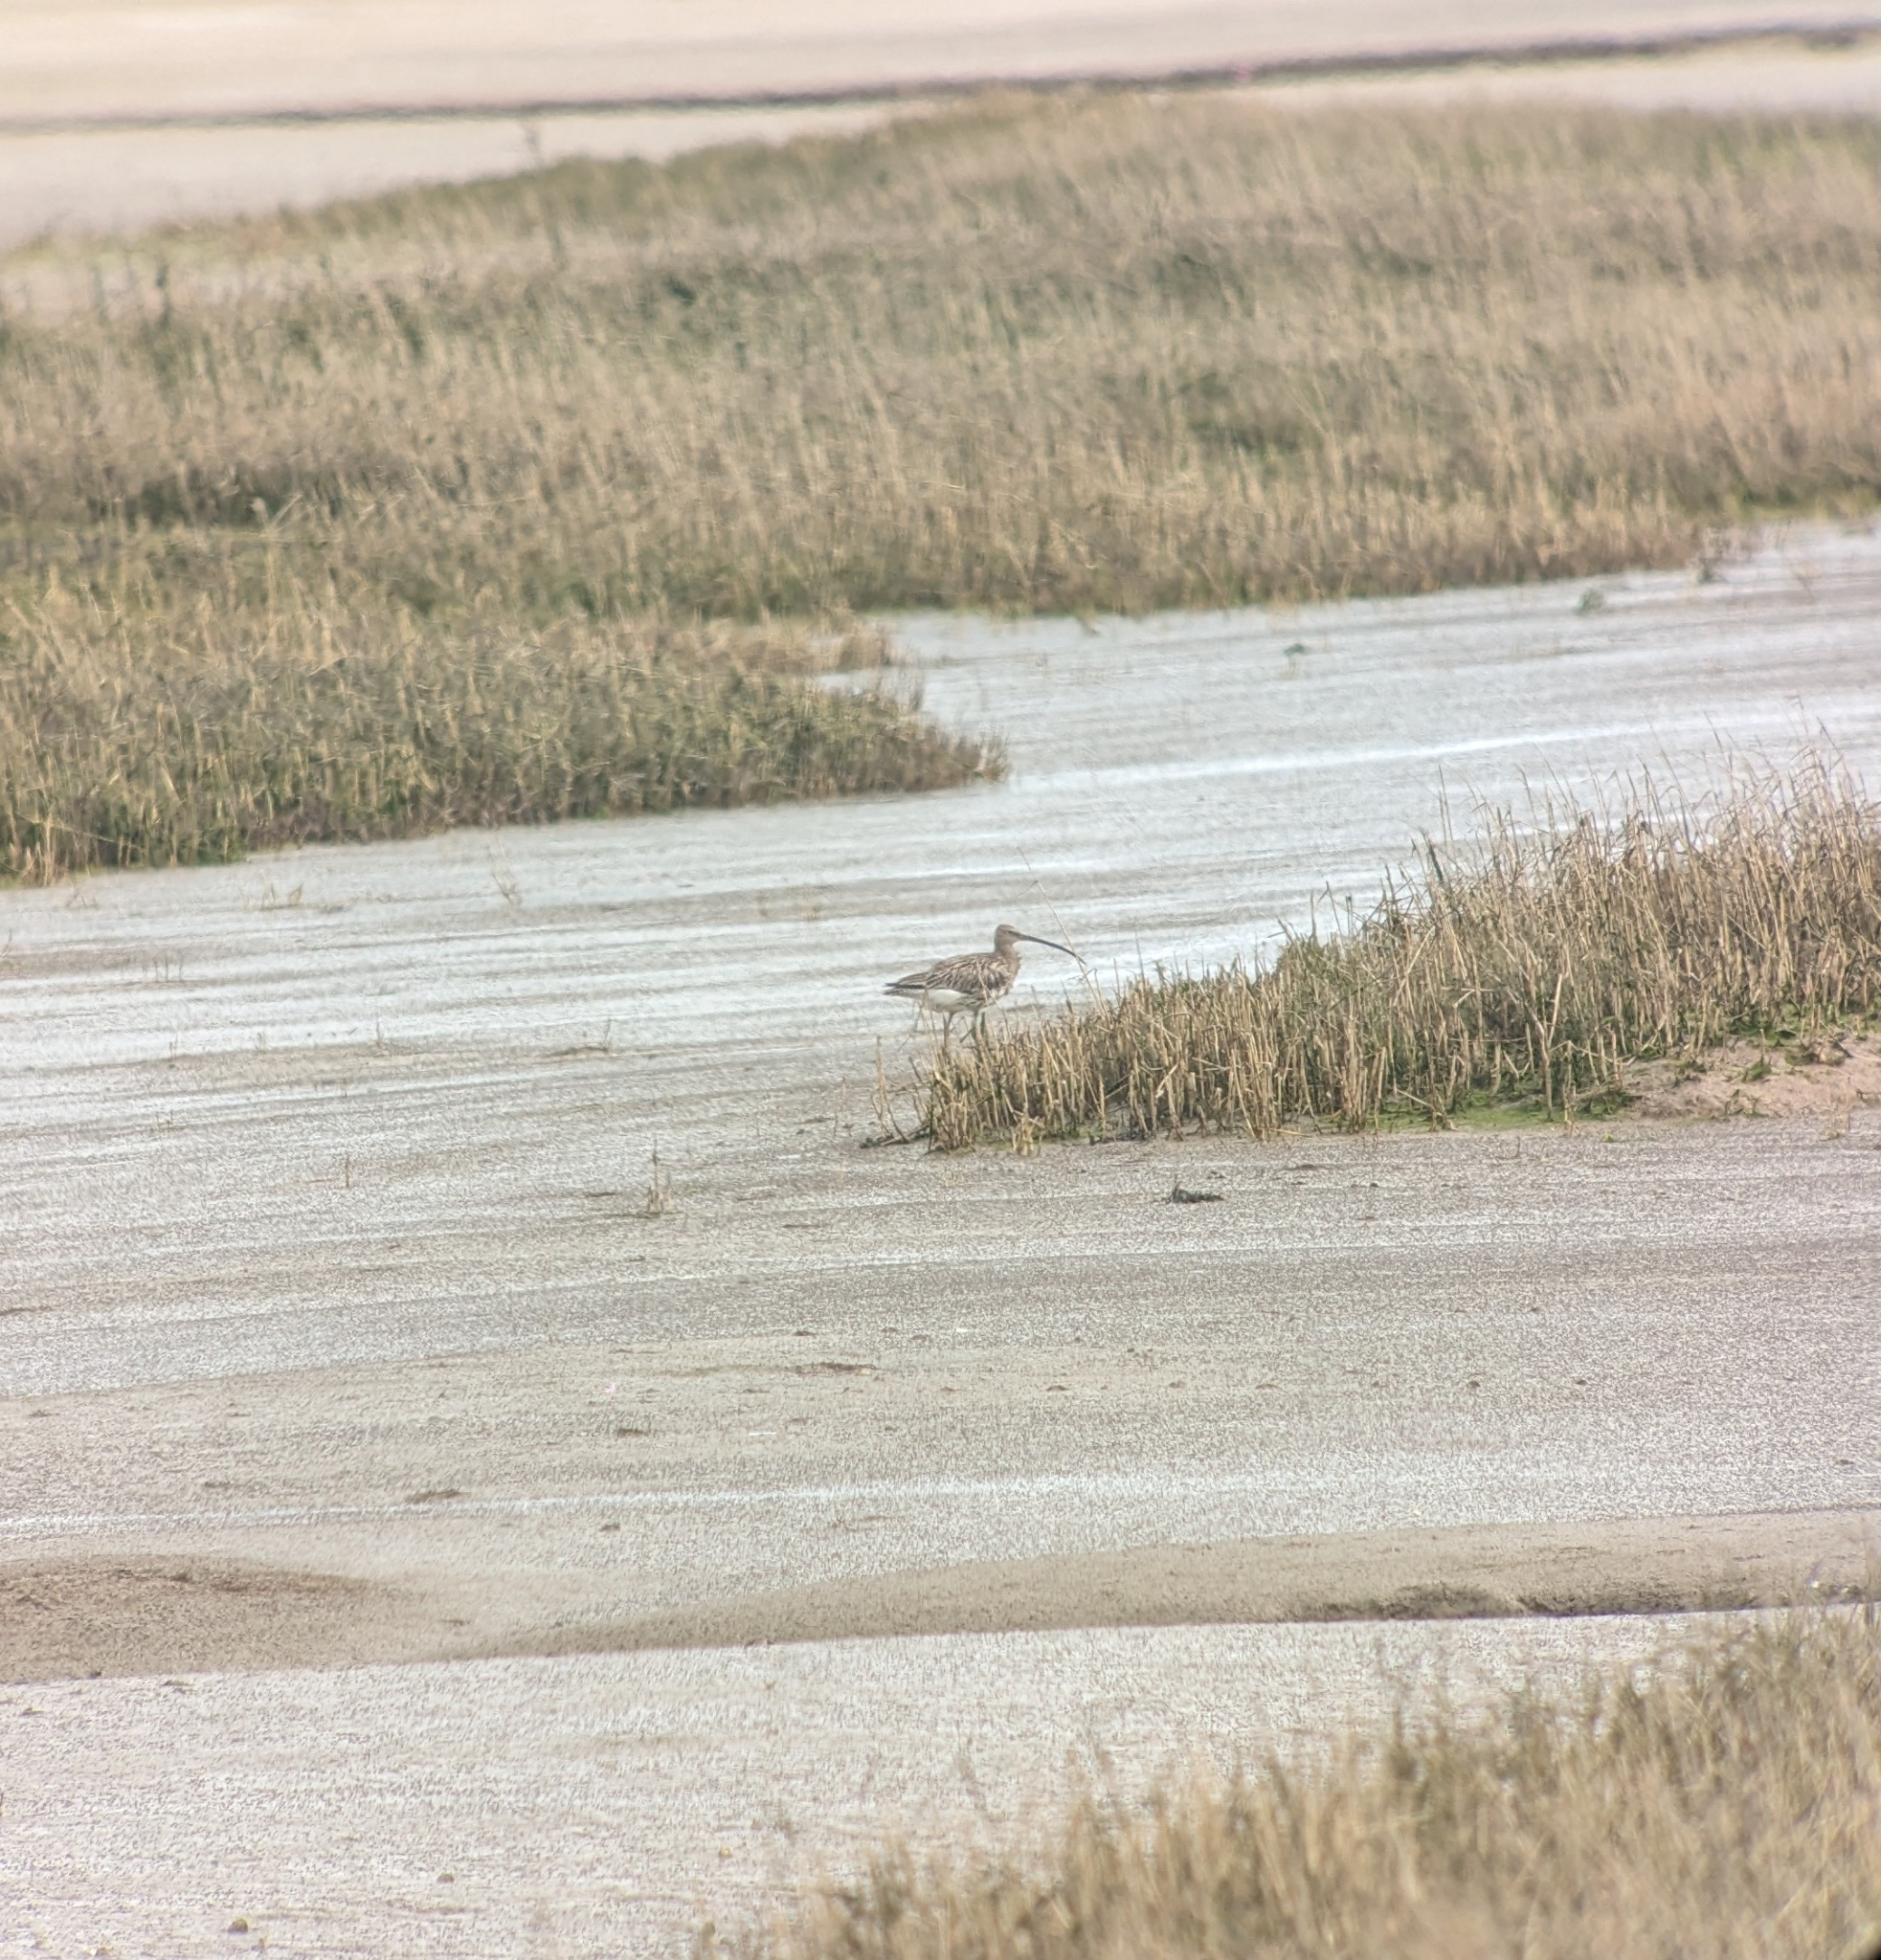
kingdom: Animalia
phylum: Chordata
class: Aves
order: Charadriiformes
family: Scolopacidae
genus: Numenius
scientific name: Numenius arquata
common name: Eurasian curlew
